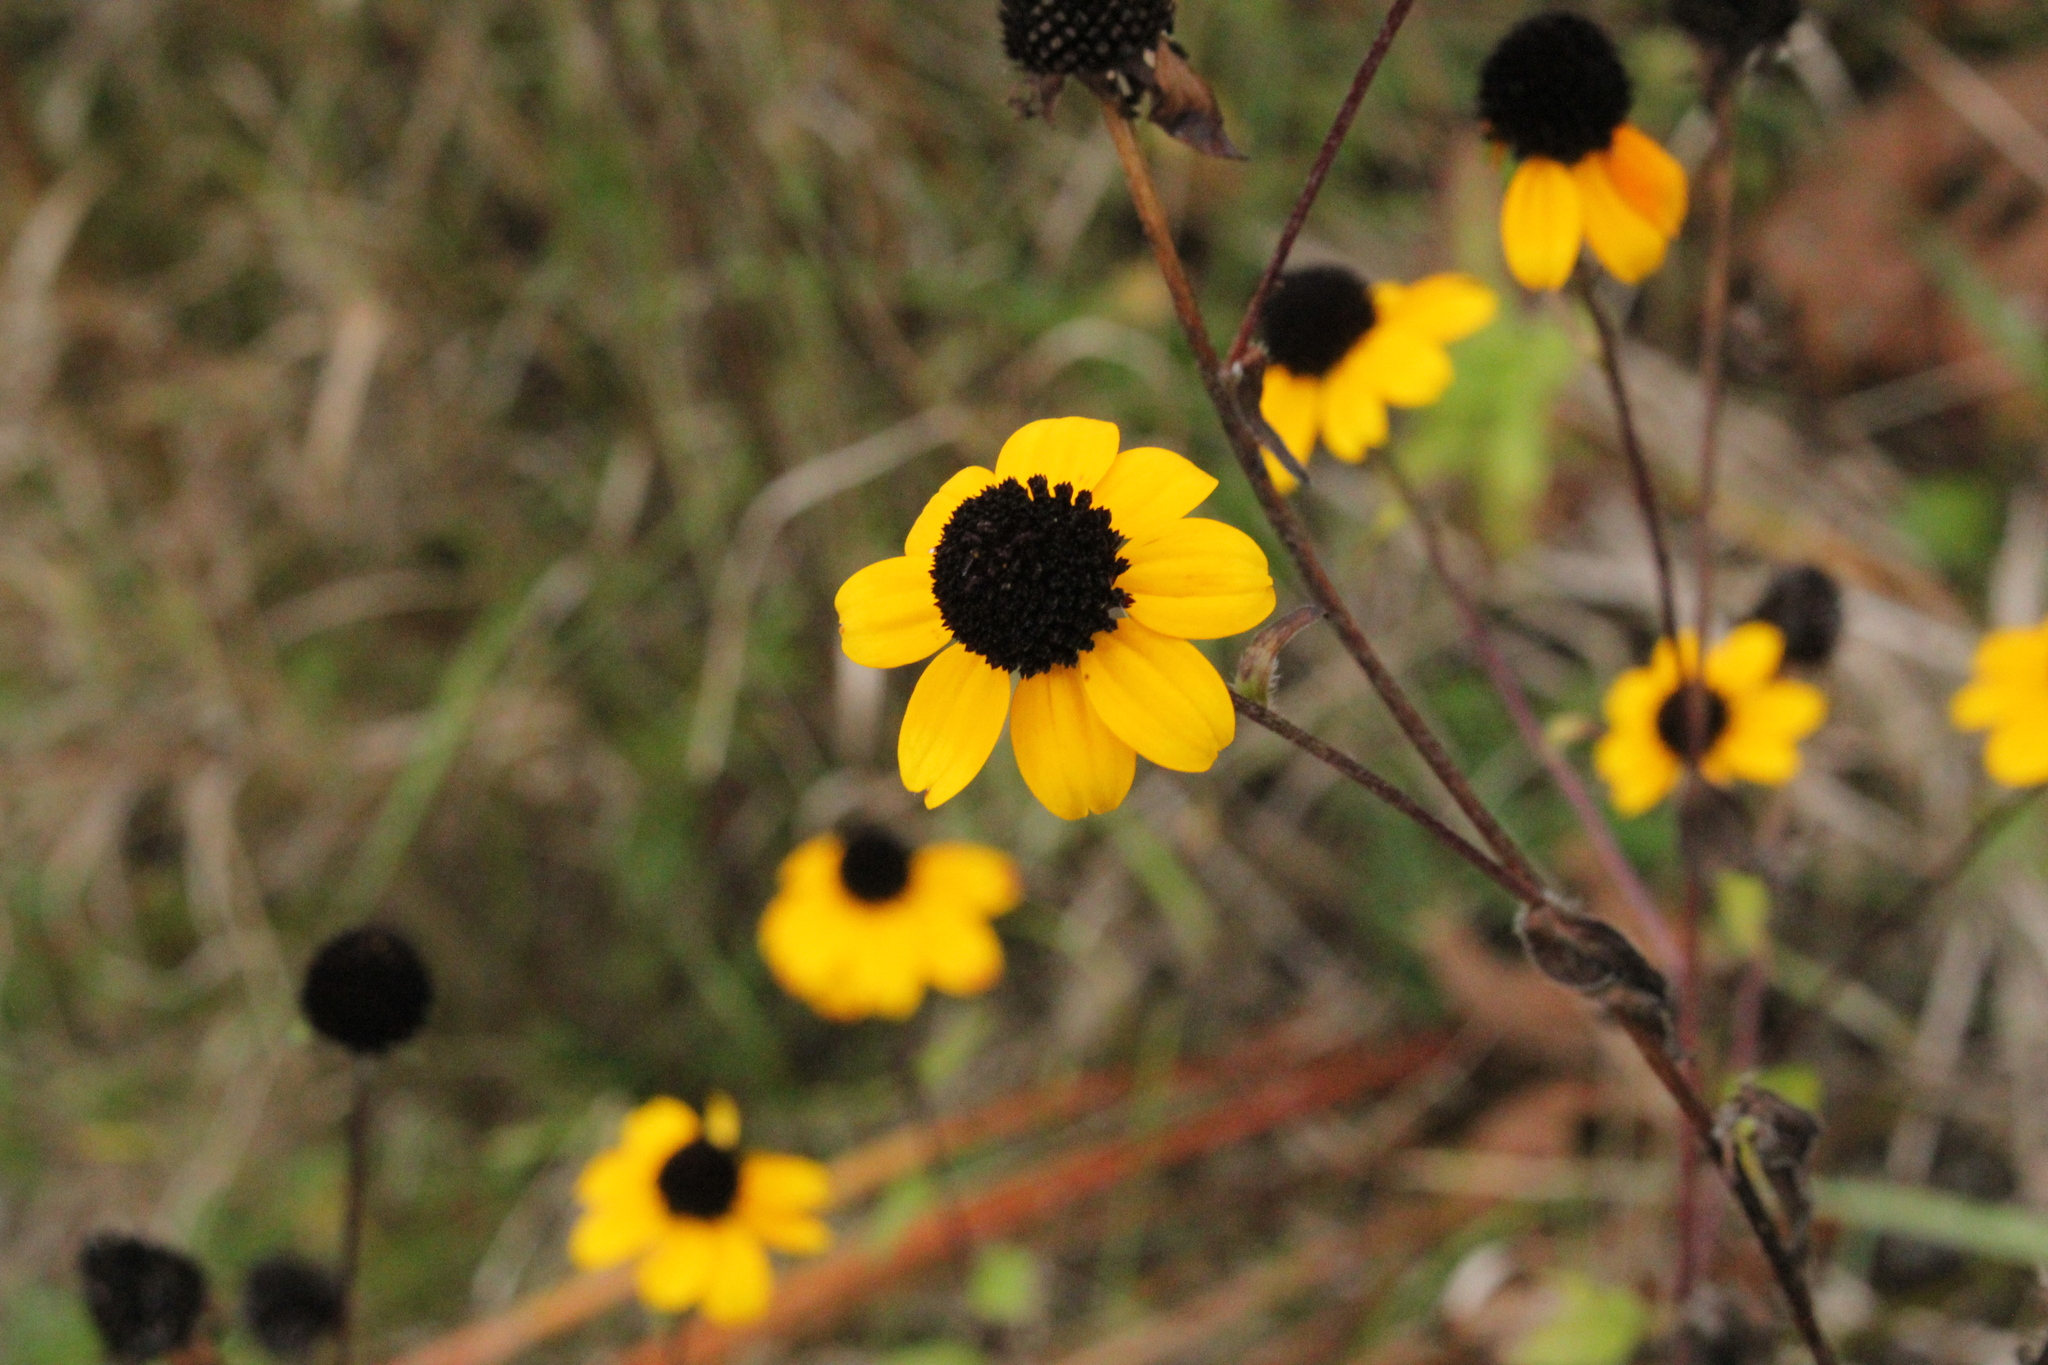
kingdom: Plantae
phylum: Tracheophyta
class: Magnoliopsida
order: Asterales
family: Asteraceae
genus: Rudbeckia
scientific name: Rudbeckia triloba
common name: Thin-leaved coneflower
